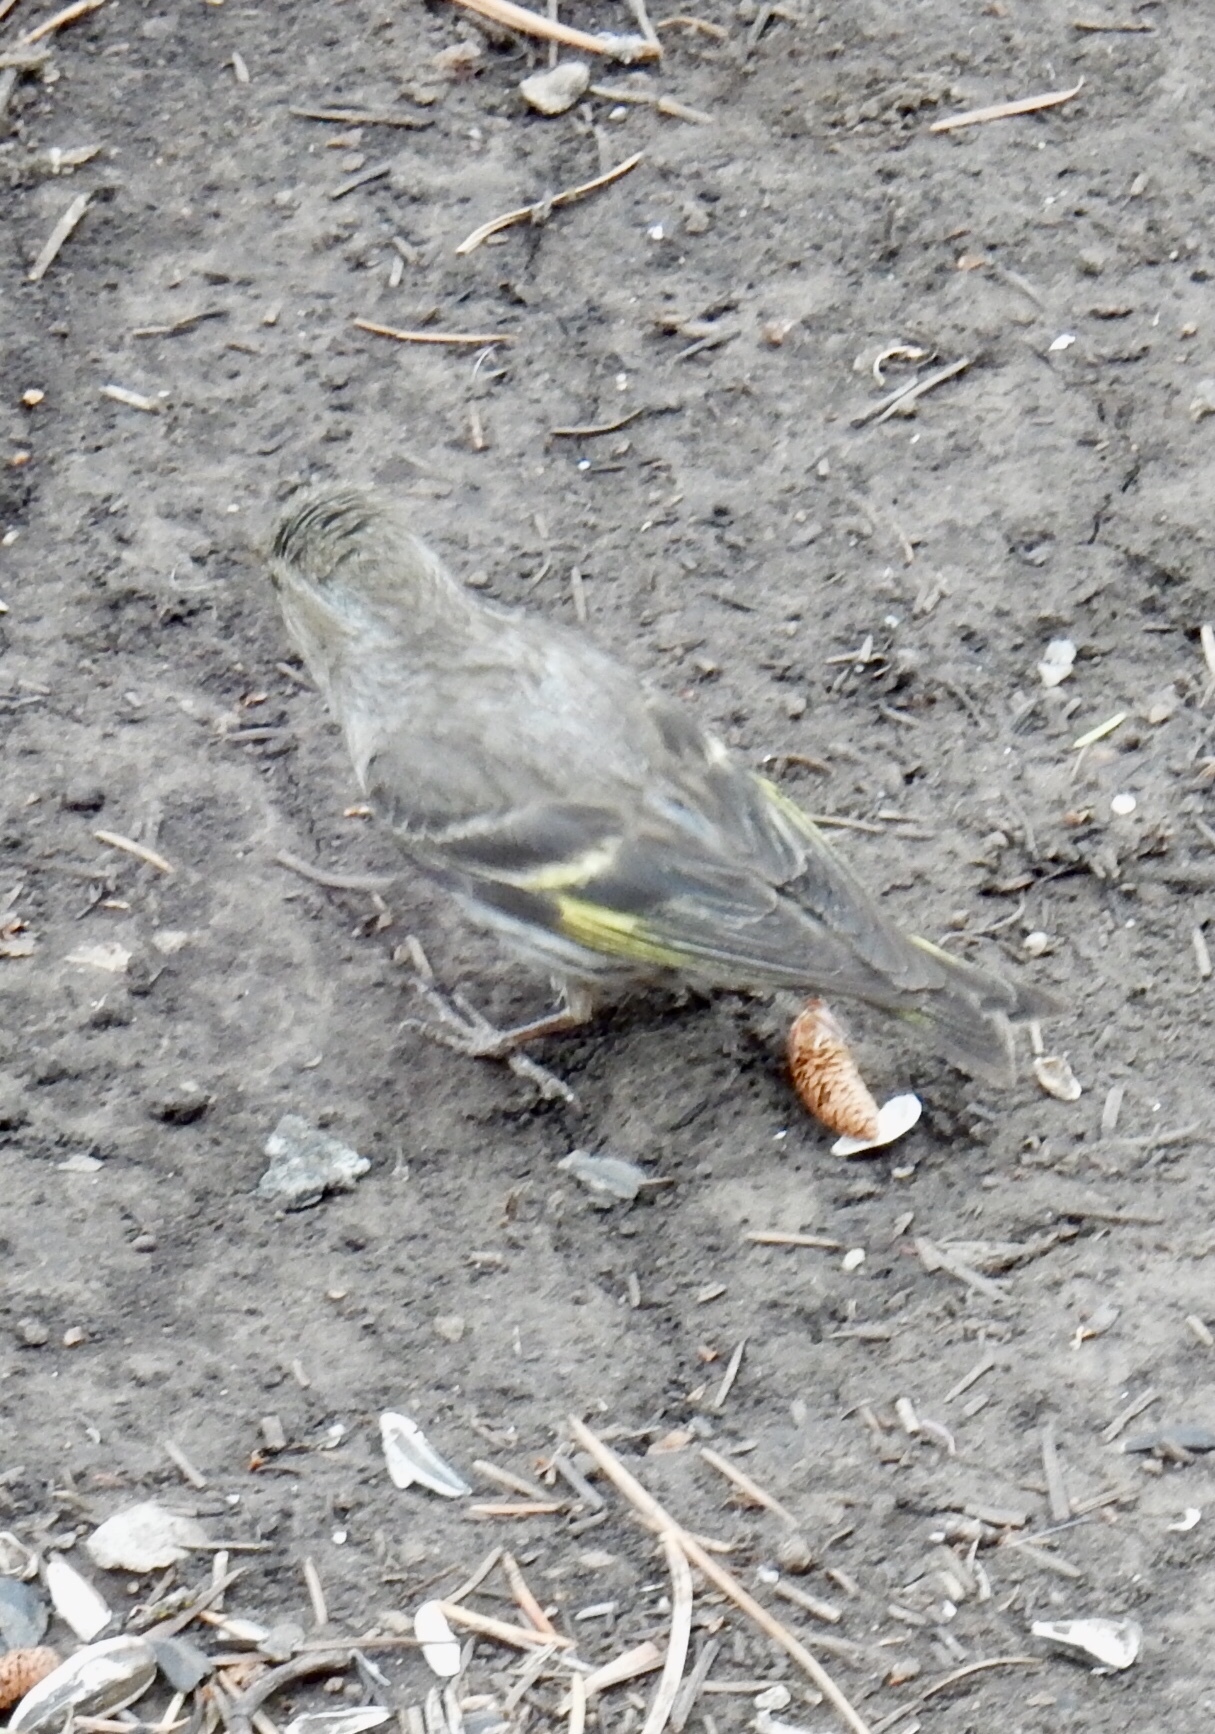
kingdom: Animalia
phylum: Chordata
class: Aves
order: Passeriformes
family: Fringillidae
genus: Spinus
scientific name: Spinus pinus
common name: Pine siskin
